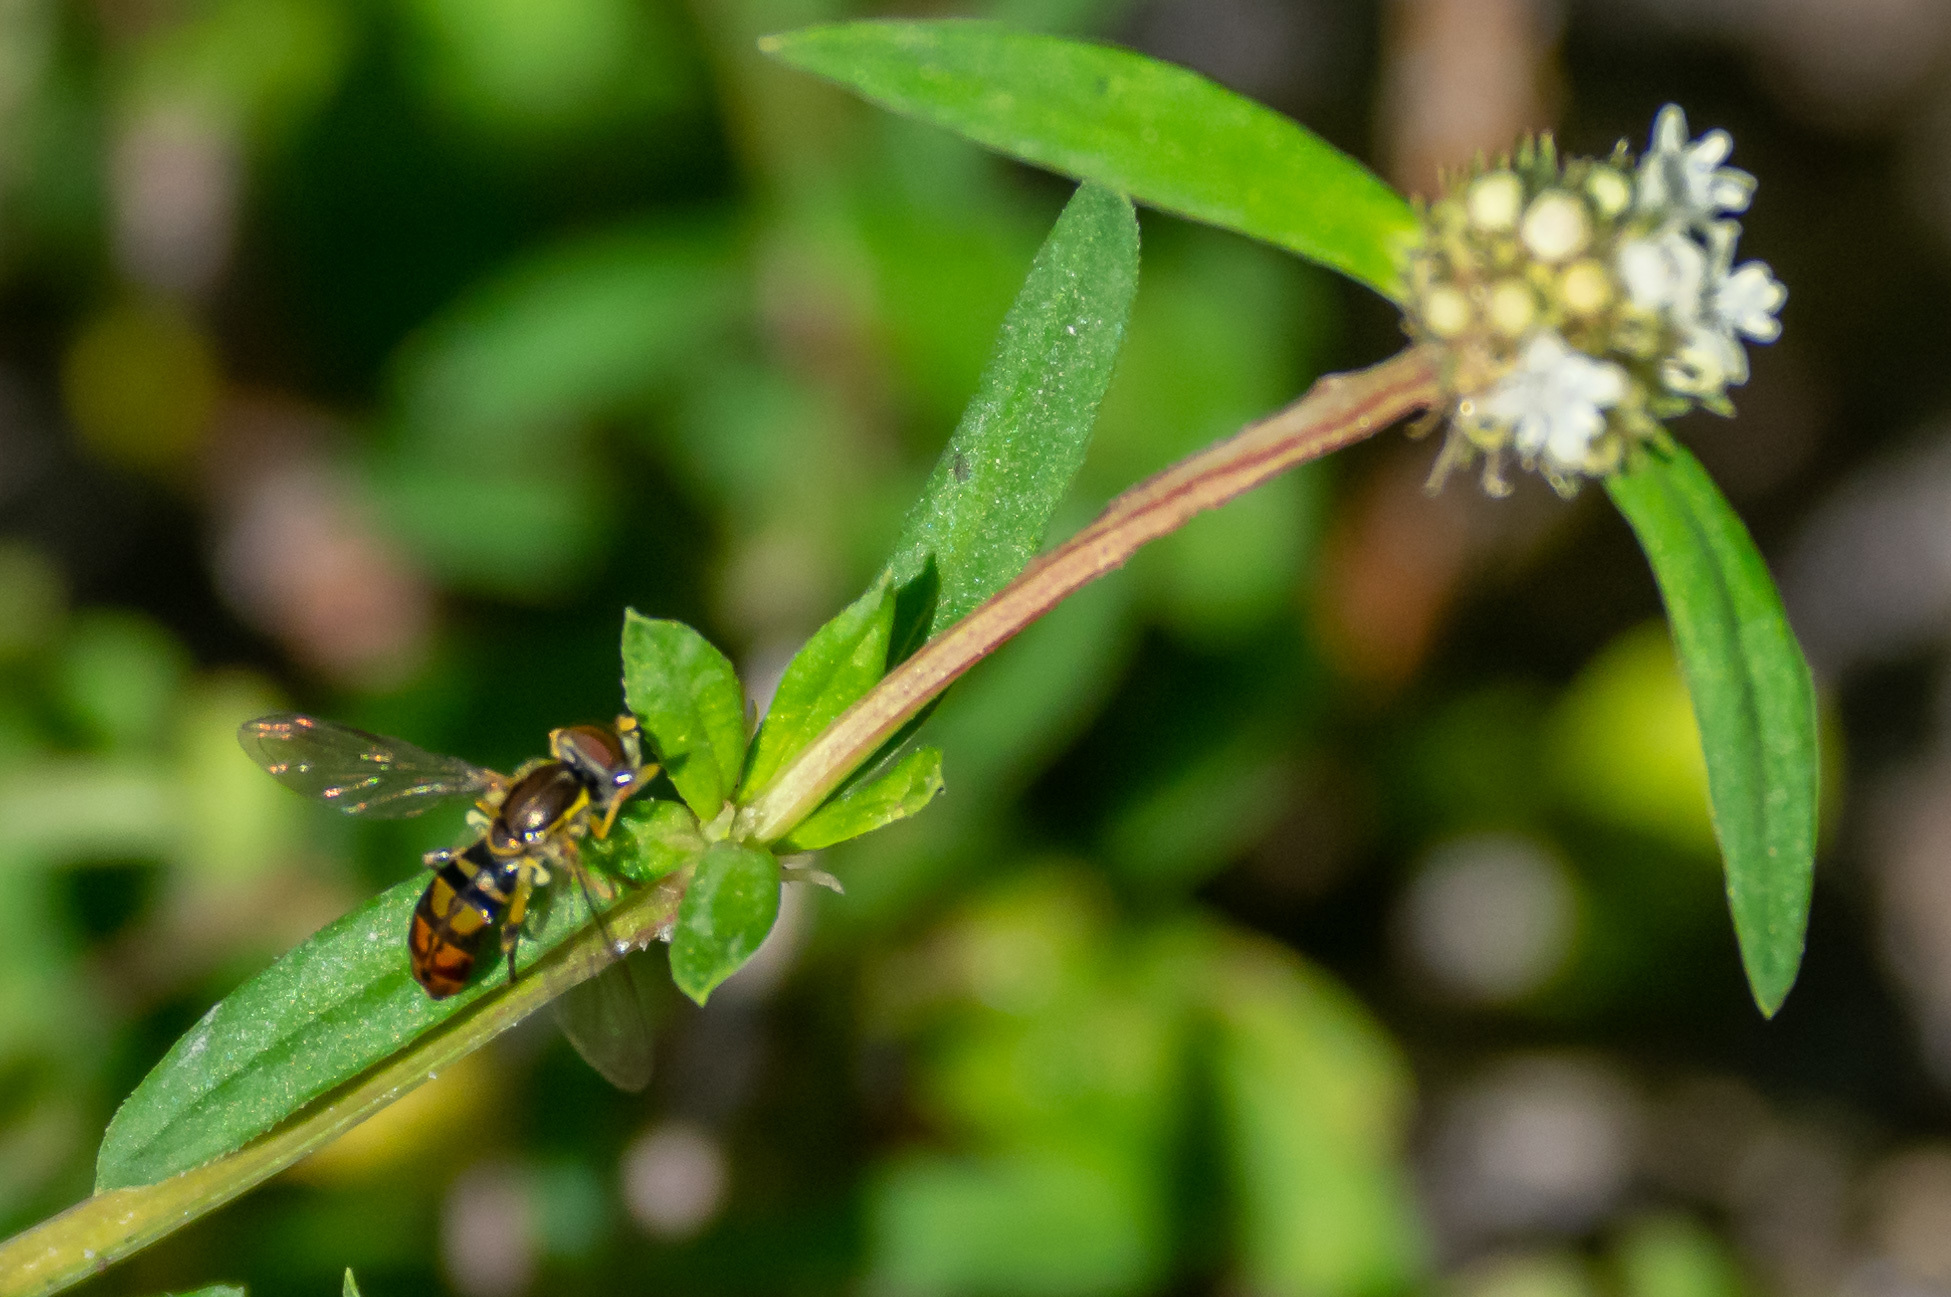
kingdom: Animalia
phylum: Arthropoda
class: Insecta
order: Diptera
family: Syrphidae
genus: Toxomerus
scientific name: Toxomerus floralis
